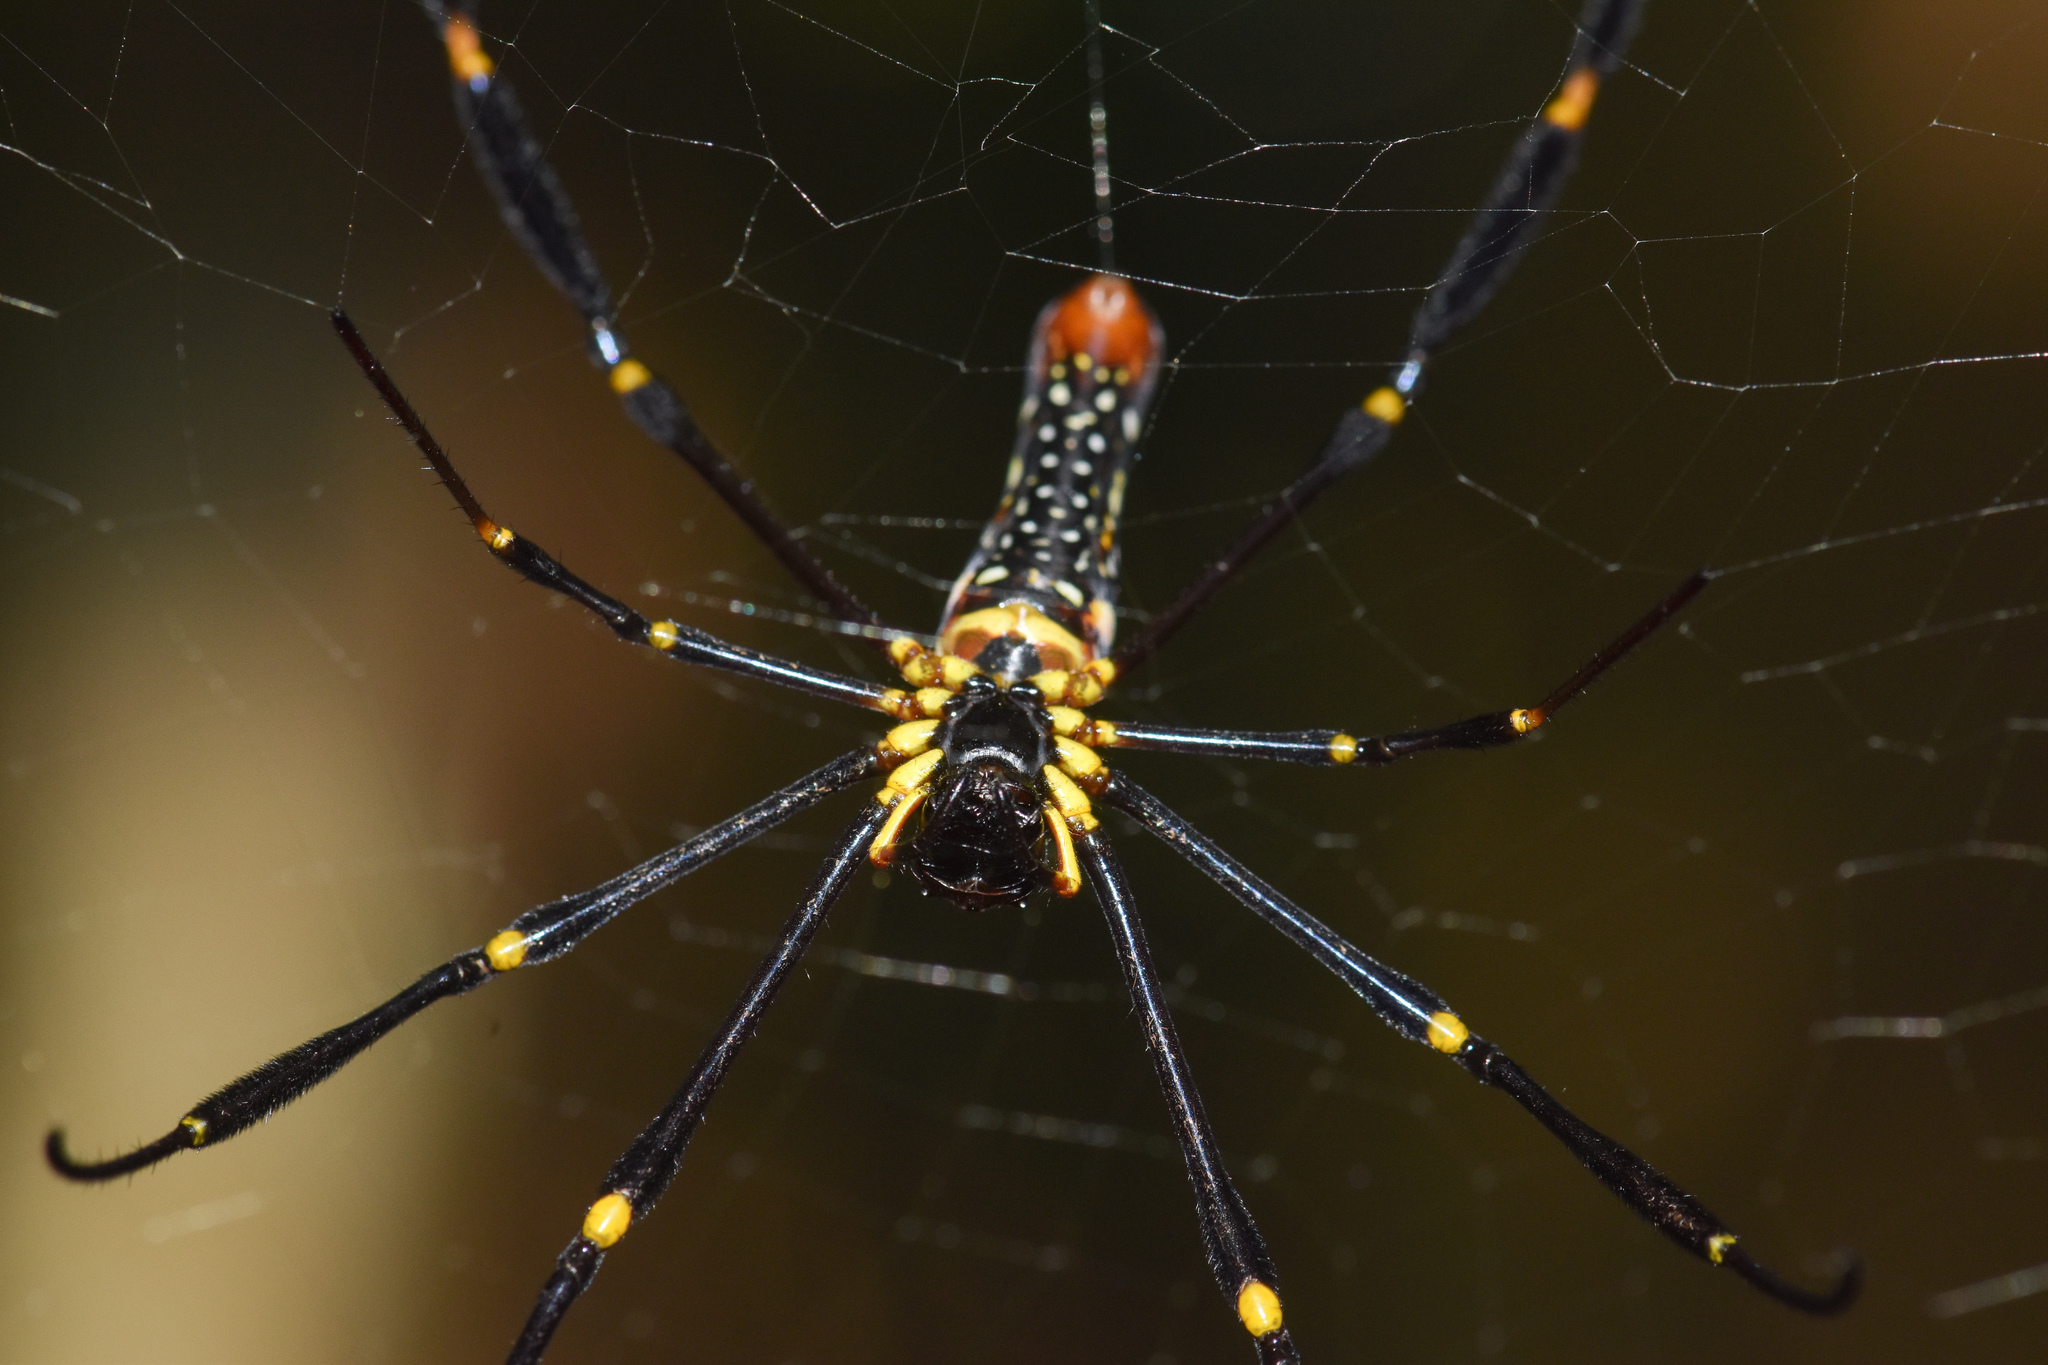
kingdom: Animalia
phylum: Arthropoda
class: Arachnida
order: Araneae
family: Araneidae
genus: Nephila
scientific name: Nephila pilipes
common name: Giant golden orb weaver
